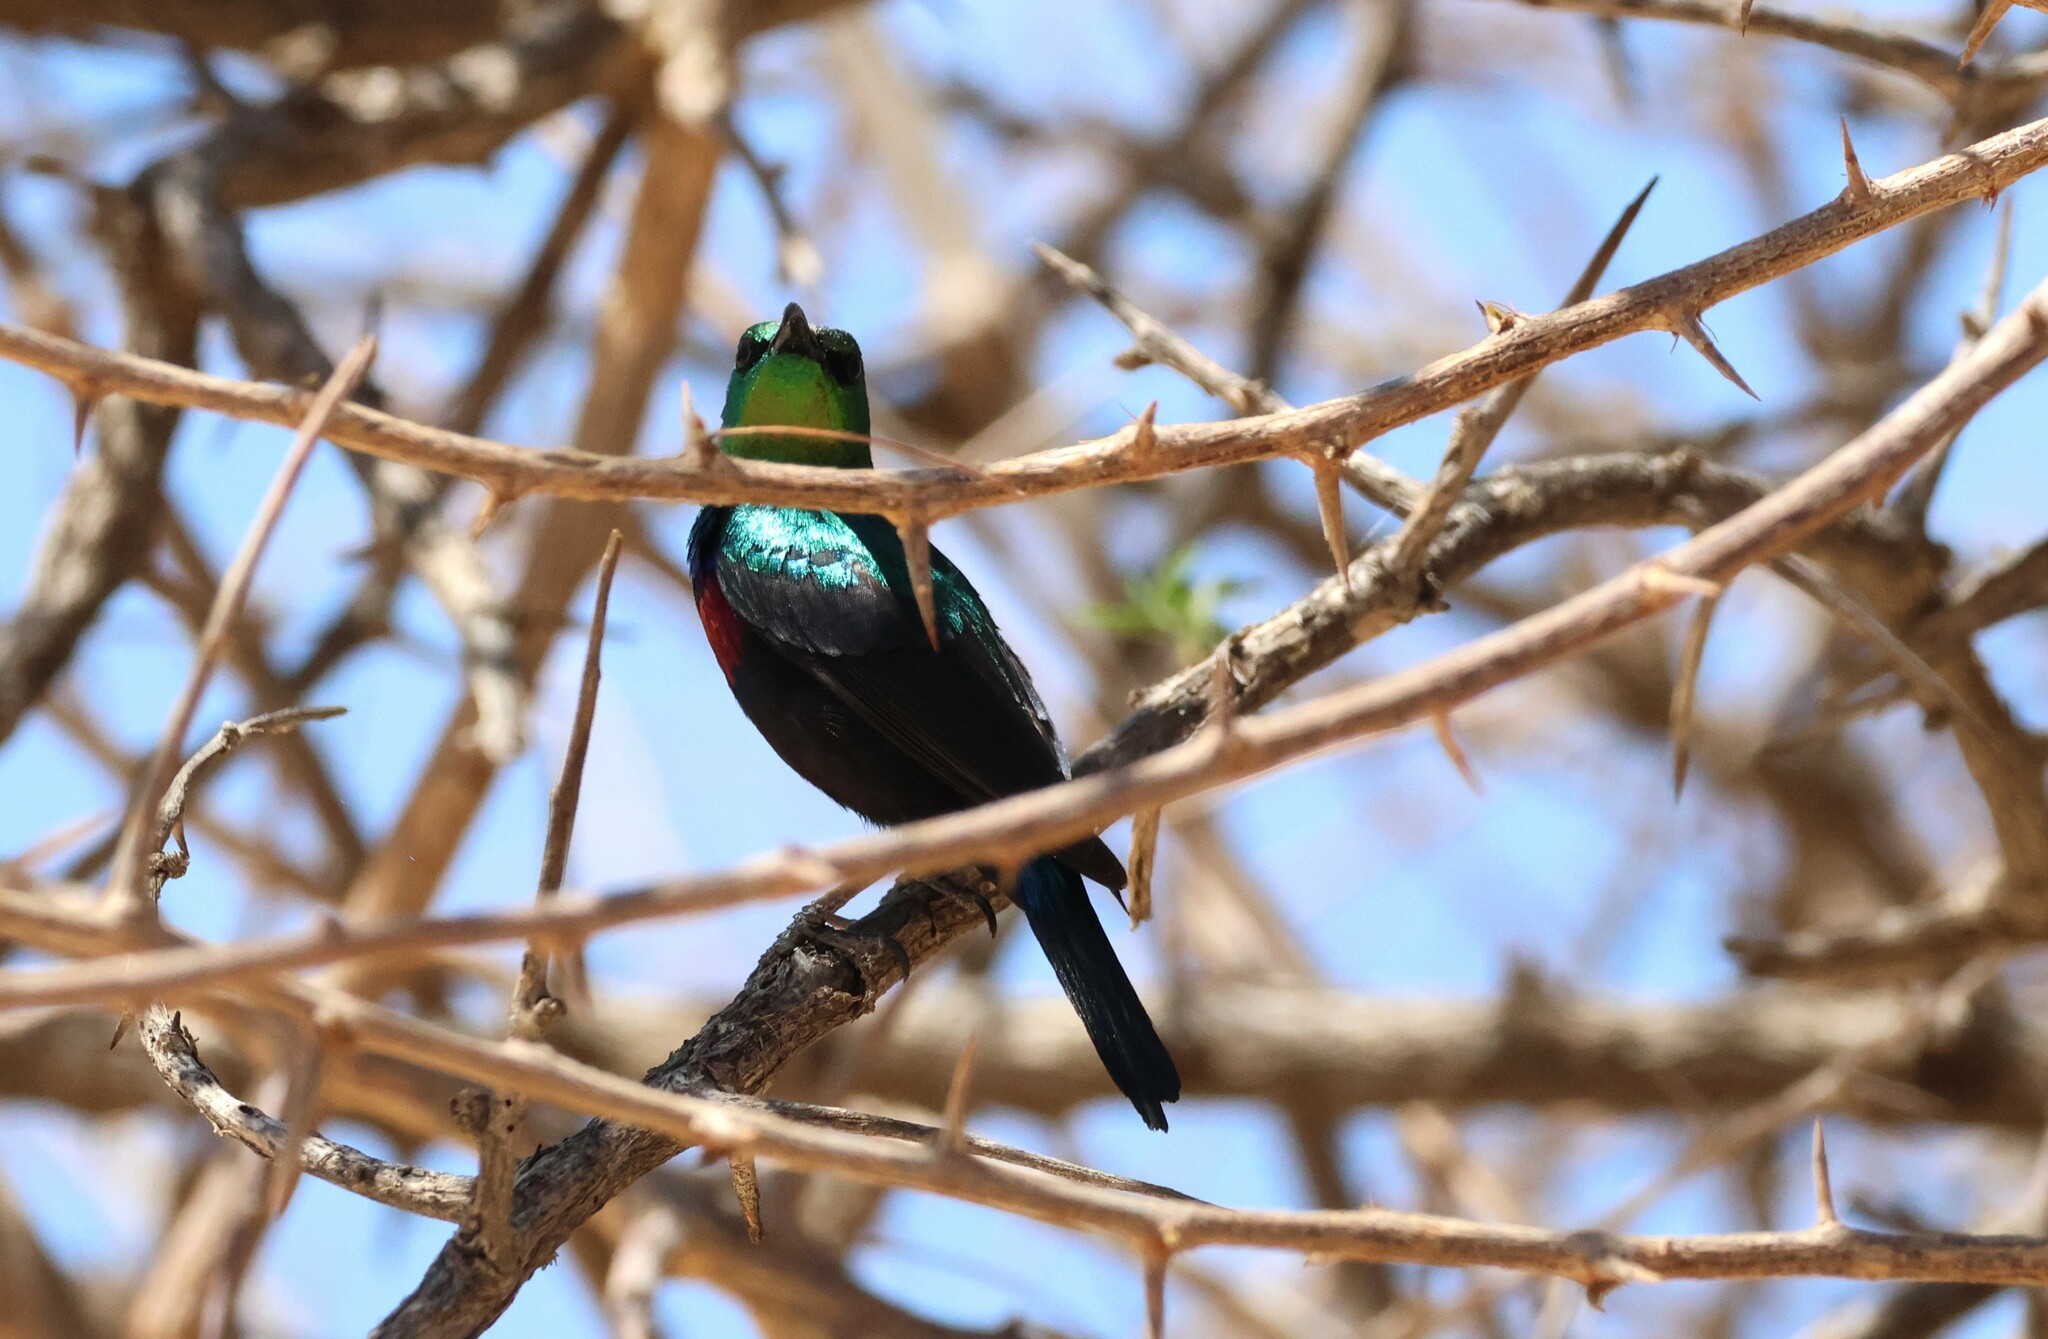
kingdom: Animalia
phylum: Chordata
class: Aves
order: Passeriformes
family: Nectariniidae
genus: Cinnyris
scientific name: Cinnyris mariquensis
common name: Marico sunbird
